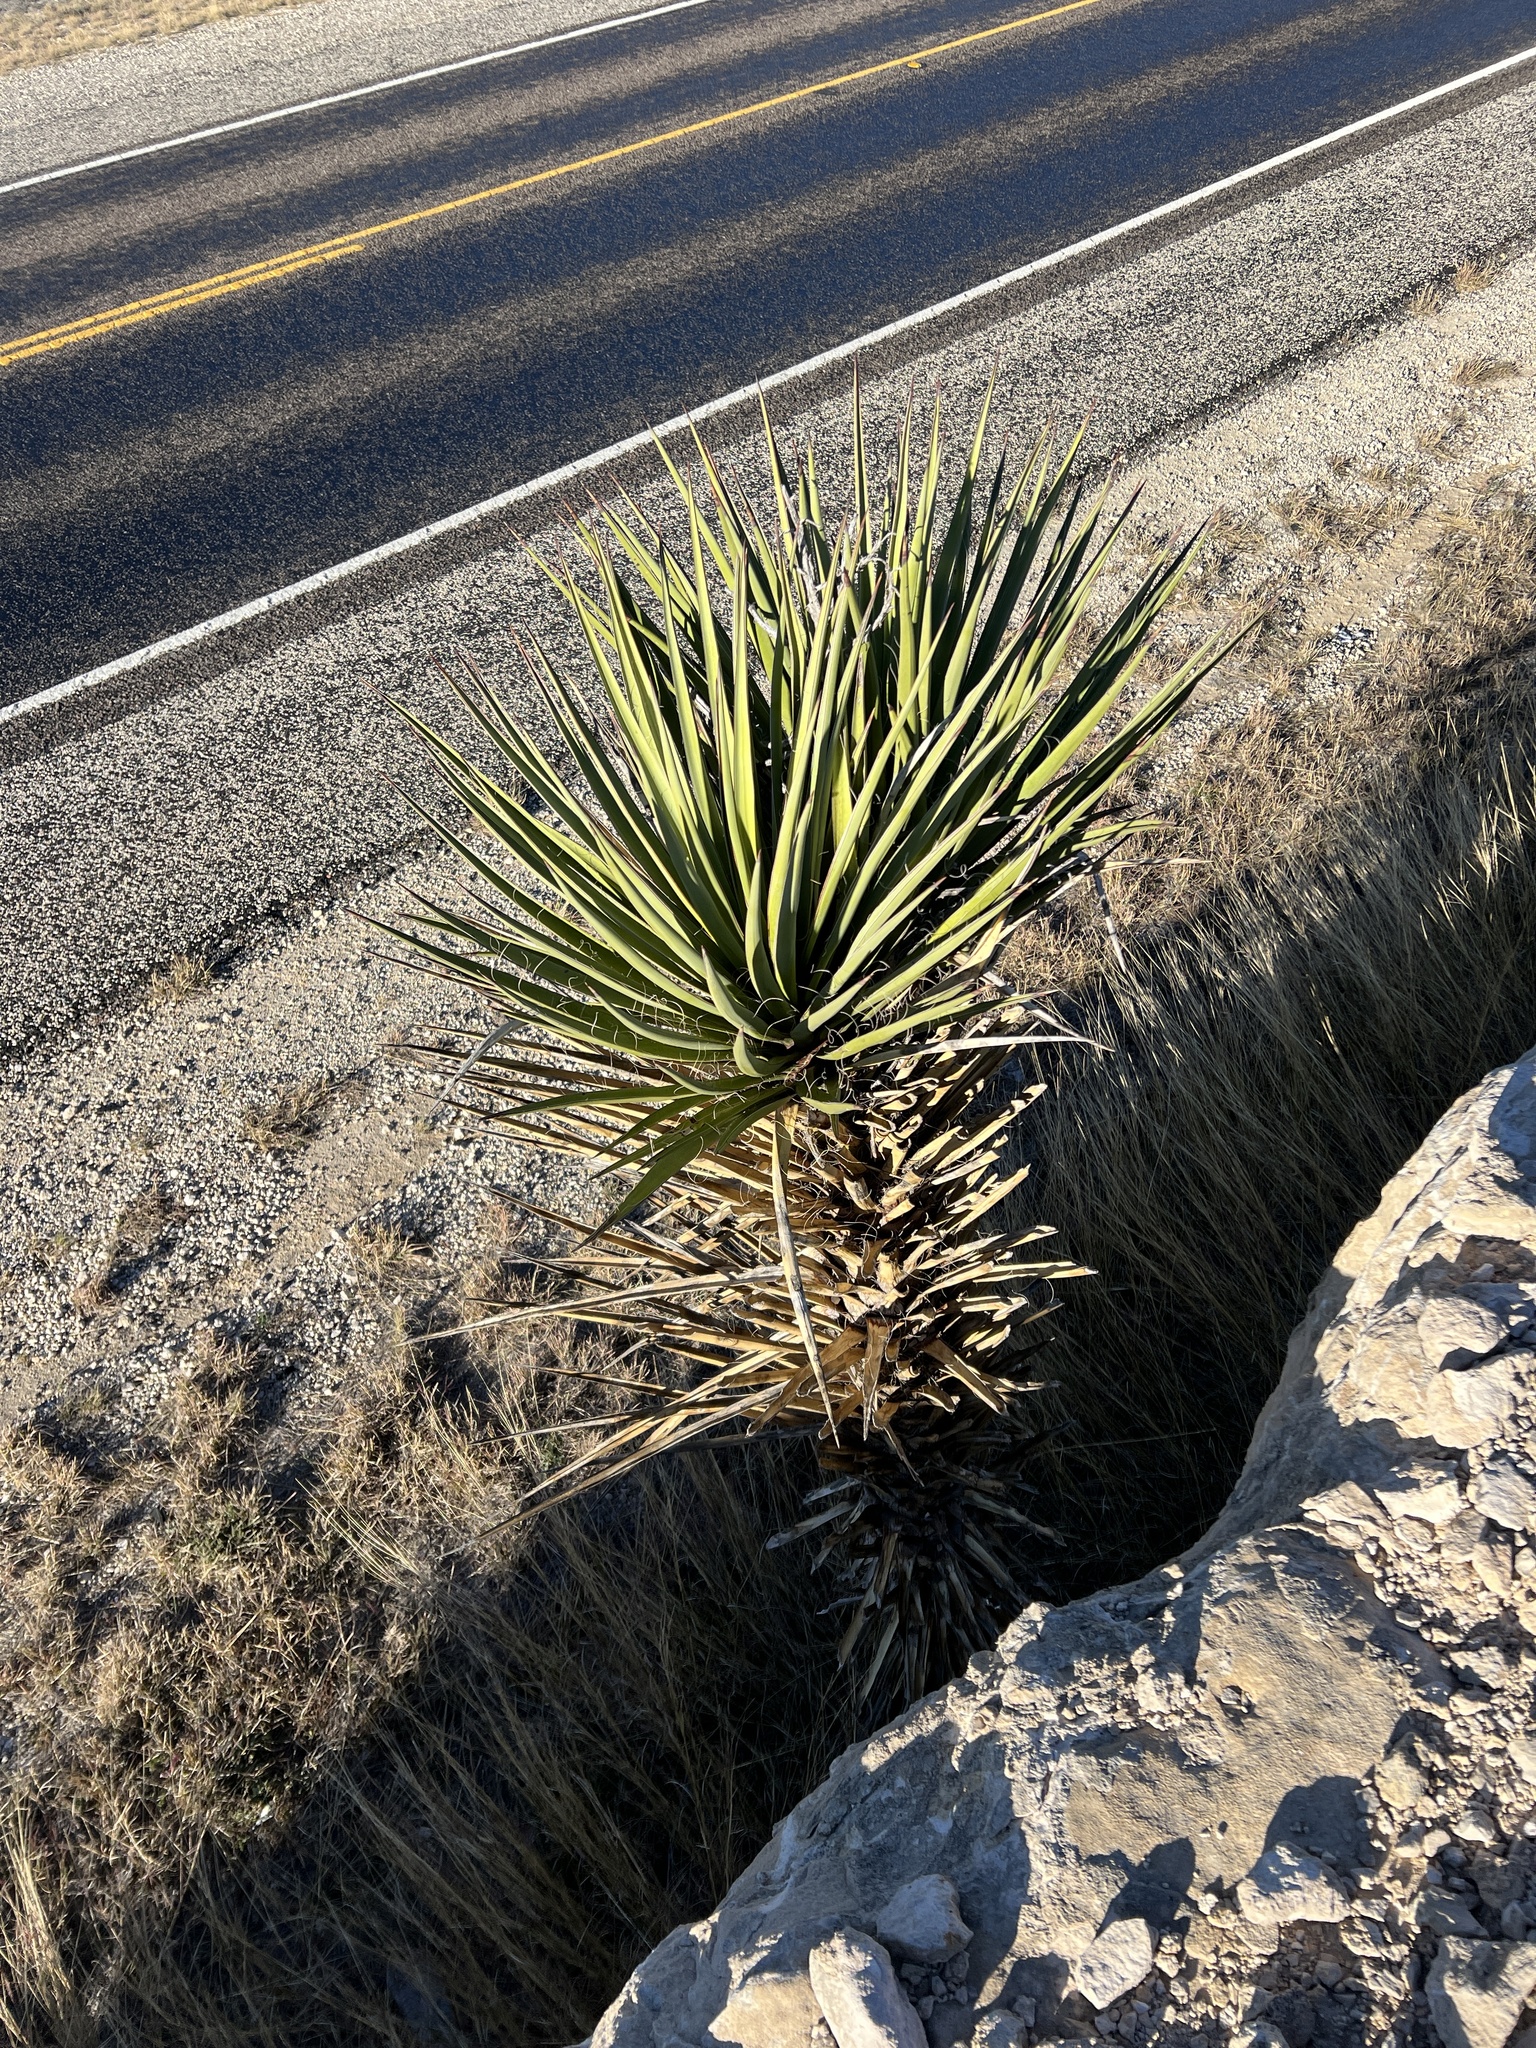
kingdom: Plantae
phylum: Tracheophyta
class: Liliopsida
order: Asparagales
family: Asparagaceae
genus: Yucca
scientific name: Yucca treculiana
